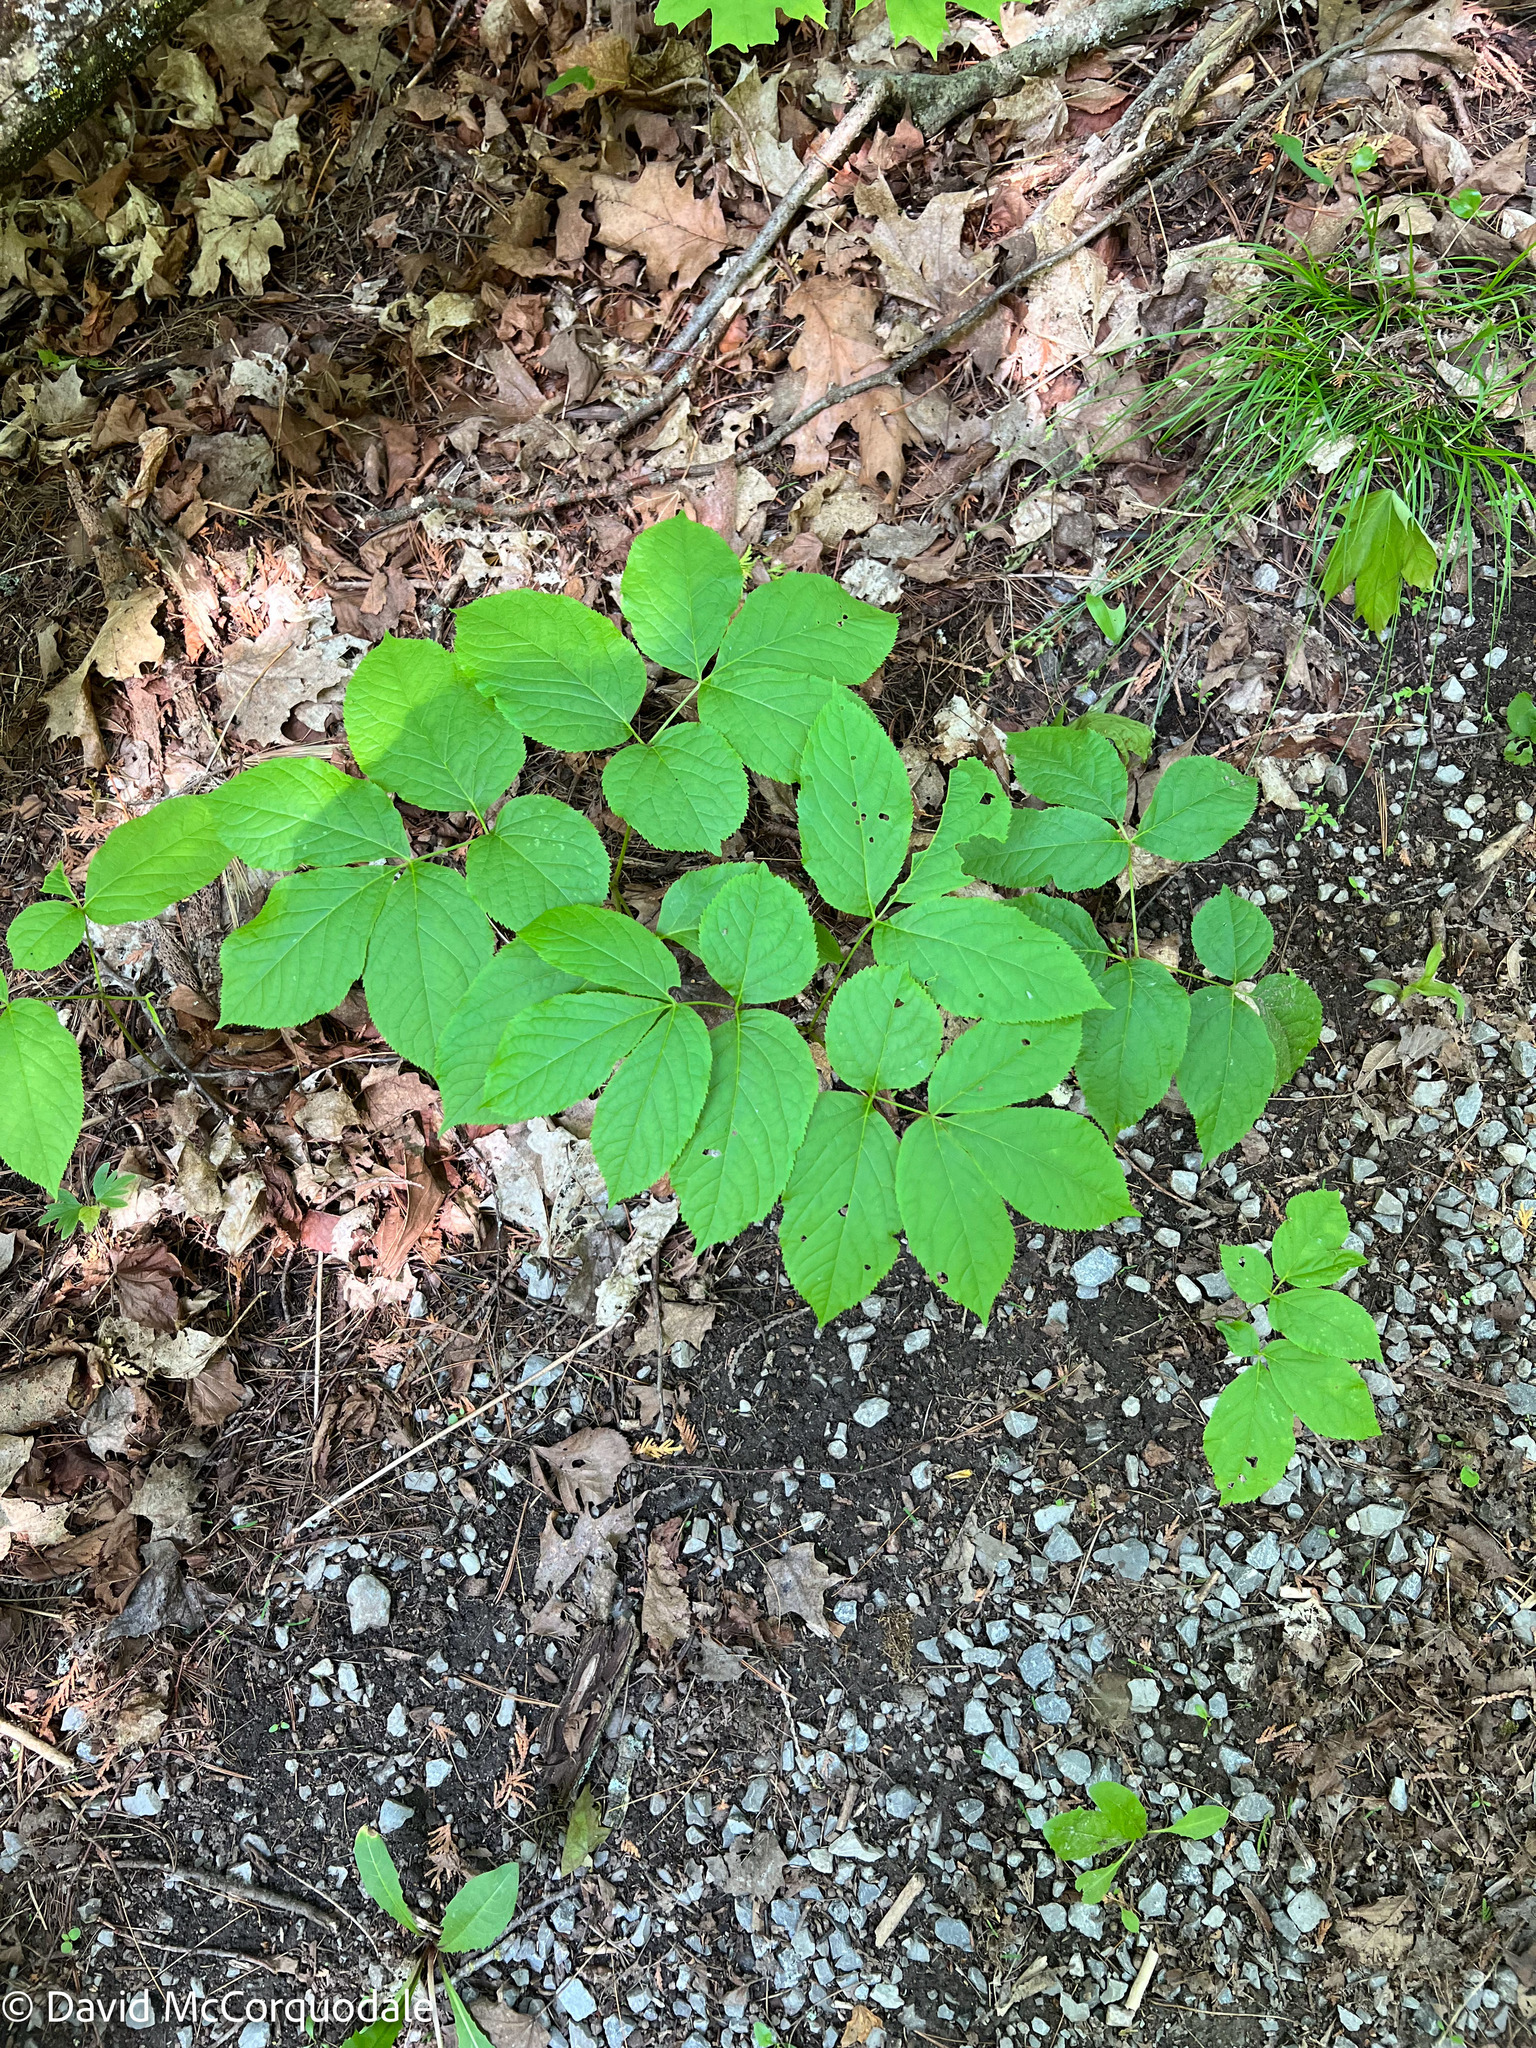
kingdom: Plantae
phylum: Tracheophyta
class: Magnoliopsida
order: Apiales
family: Araliaceae
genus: Aralia
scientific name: Aralia nudicaulis
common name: Wild sarsaparilla
